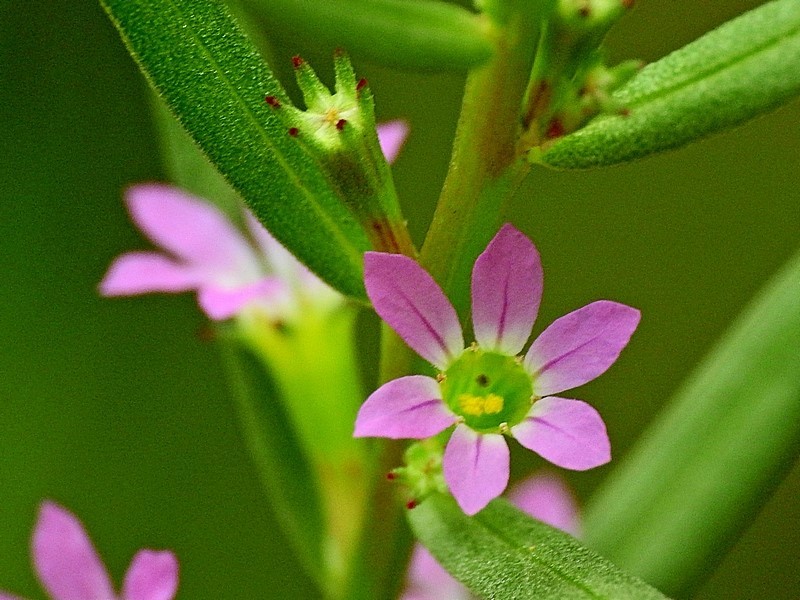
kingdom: Plantae
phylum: Tracheophyta
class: Magnoliopsida
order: Myrtales
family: Lythraceae
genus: Lythrum
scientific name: Lythrum hyssopifolia
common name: Grass-poly
